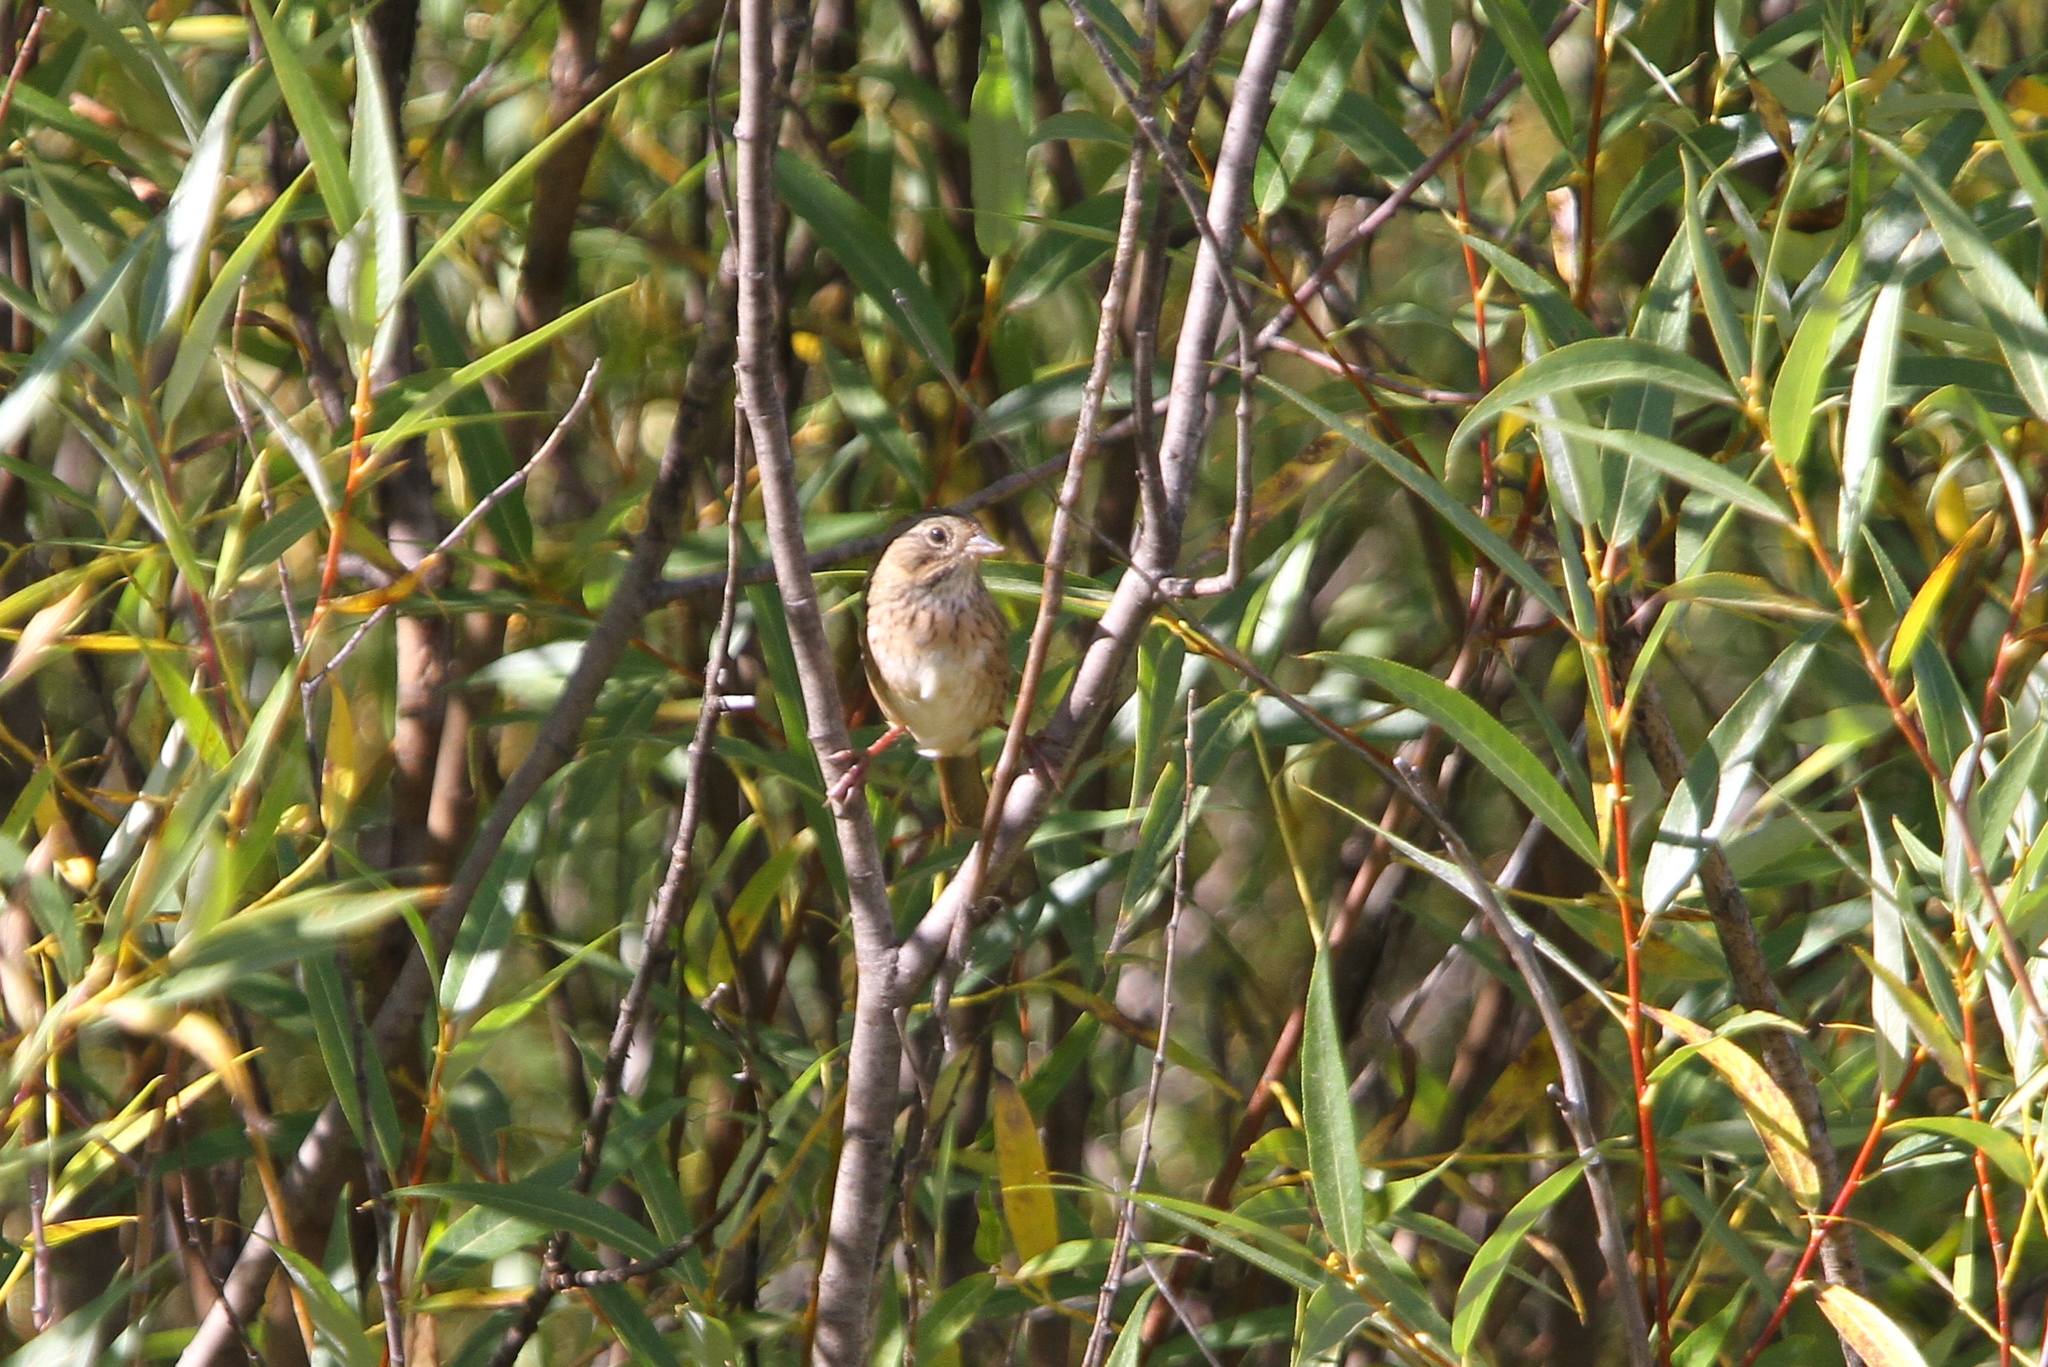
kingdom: Animalia
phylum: Chordata
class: Aves
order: Passeriformes
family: Passerellidae
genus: Melospiza
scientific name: Melospiza lincolnii
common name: Lincoln's sparrow
